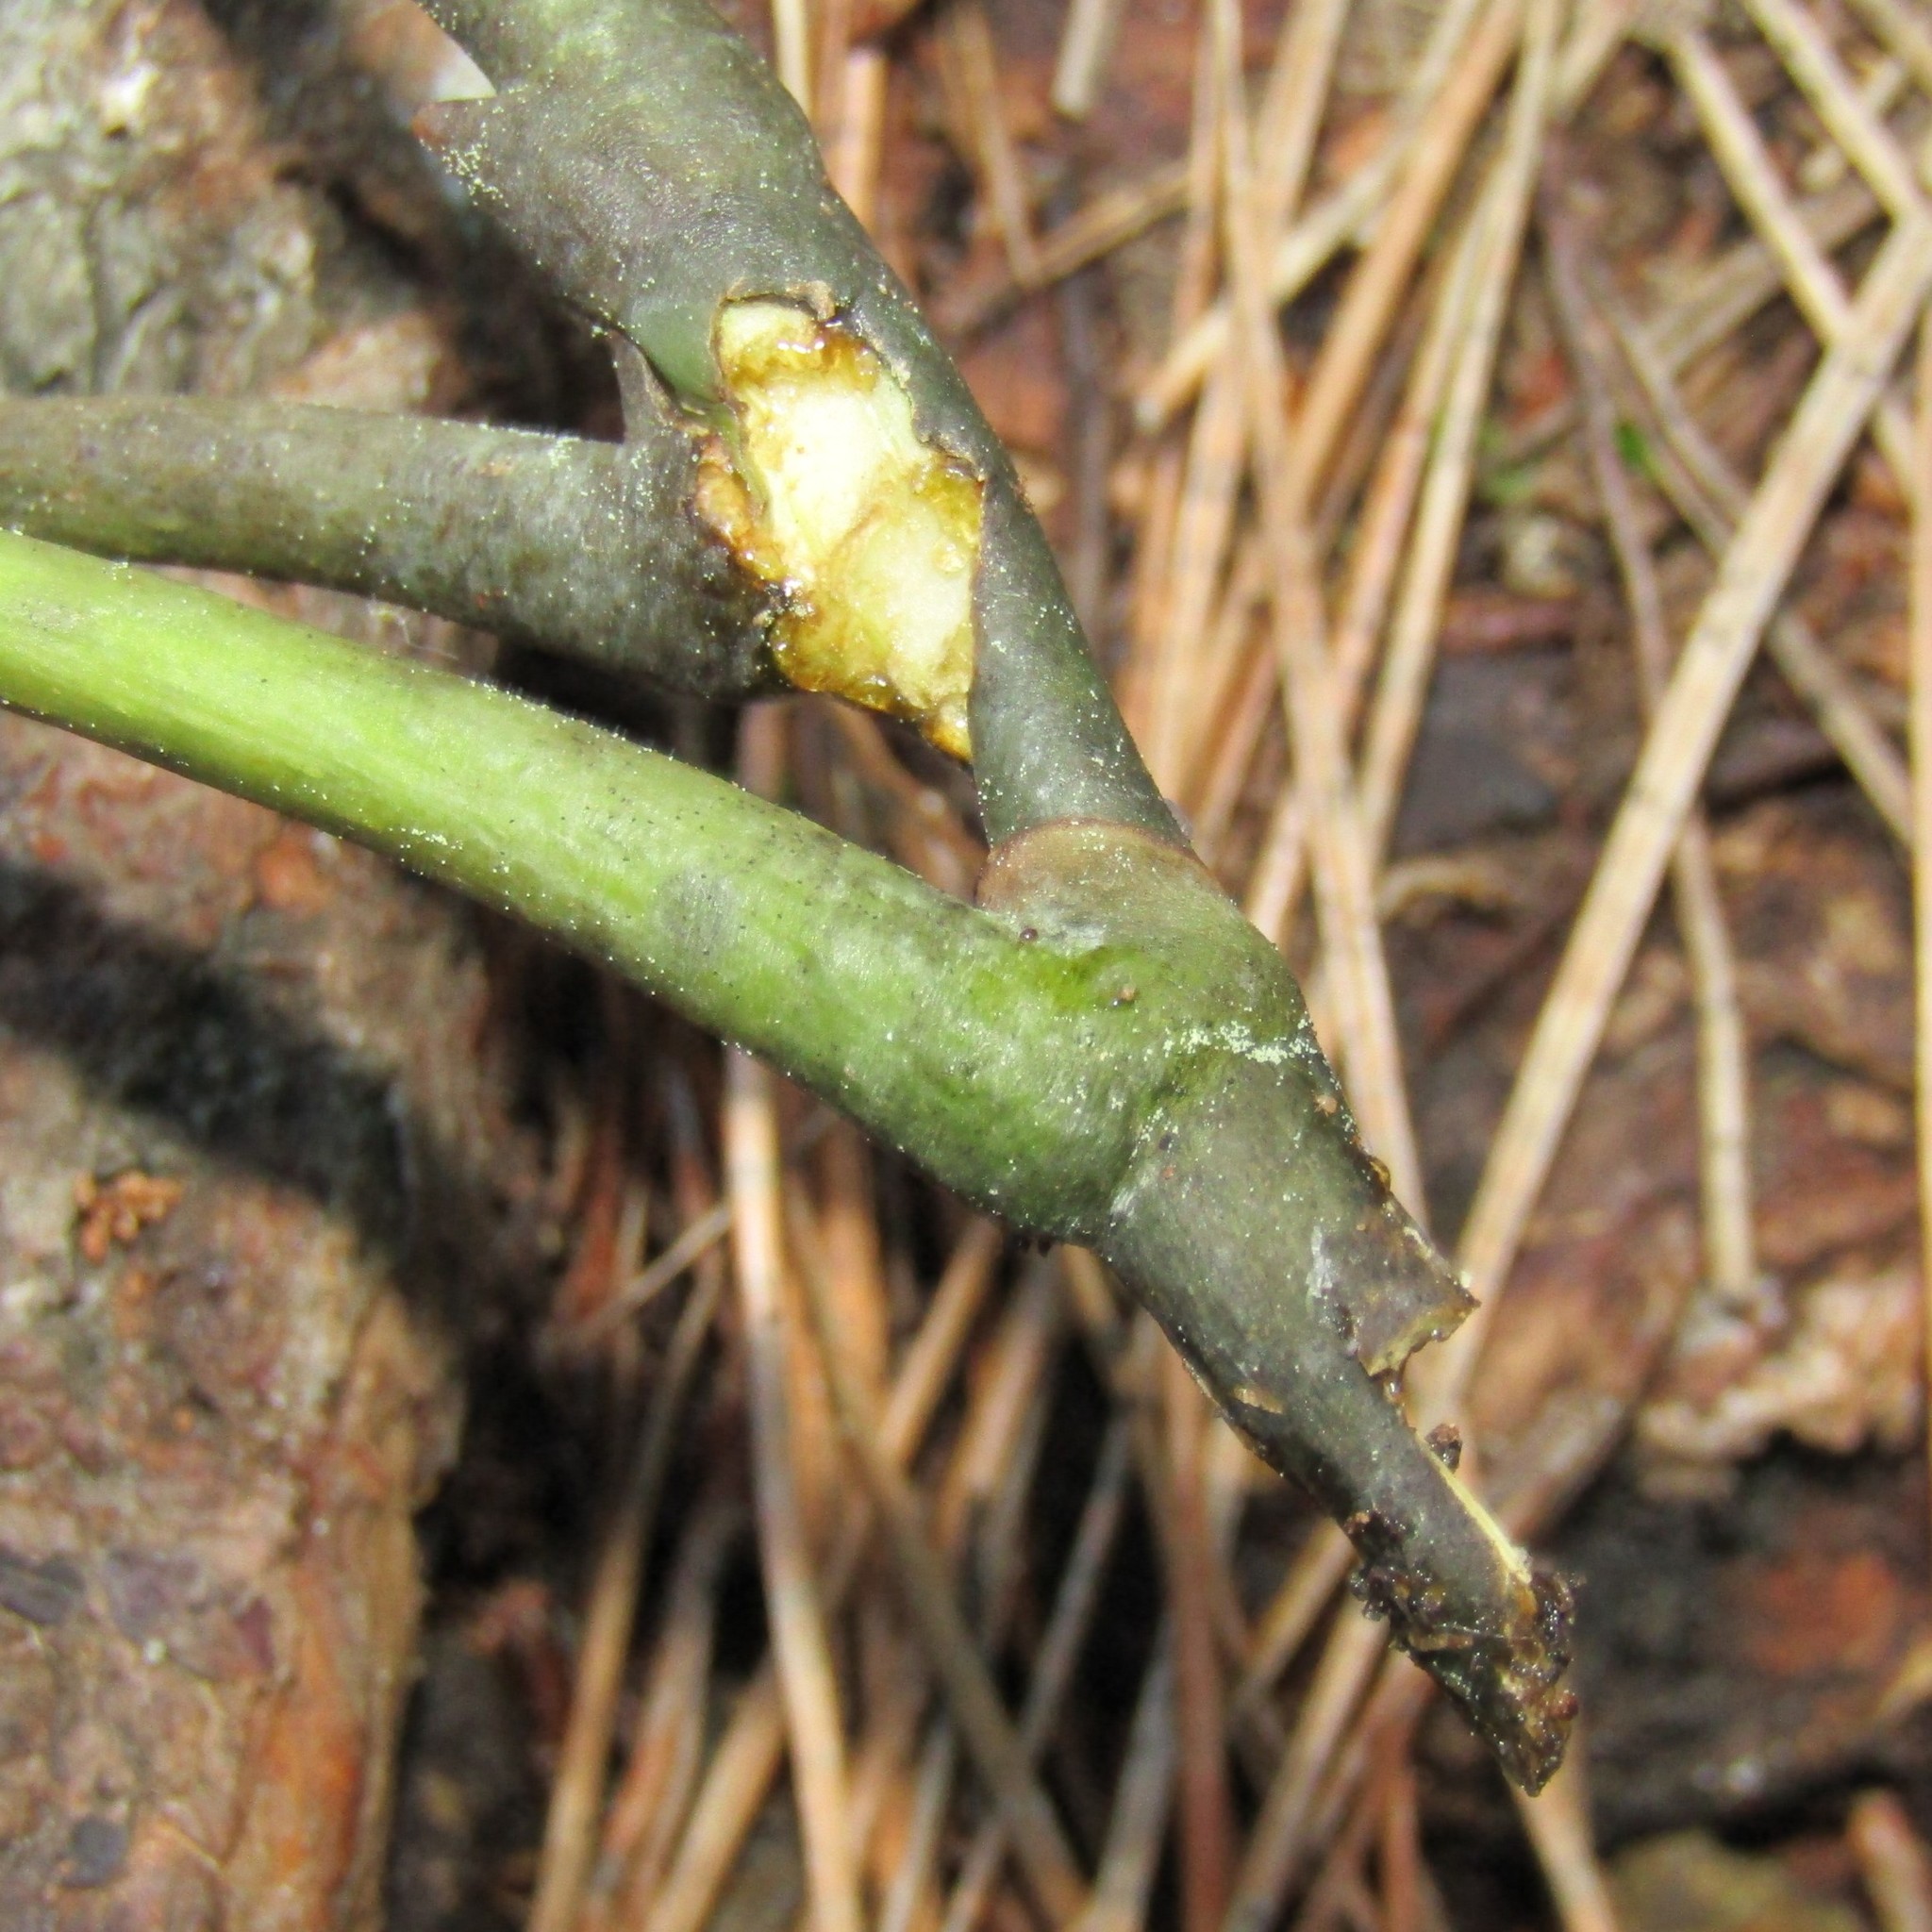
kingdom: Plantae
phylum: Tracheophyta
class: Magnoliopsida
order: Apiales
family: Araliaceae
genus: Neopanax
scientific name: Neopanax arboreus
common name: Five-fingers
